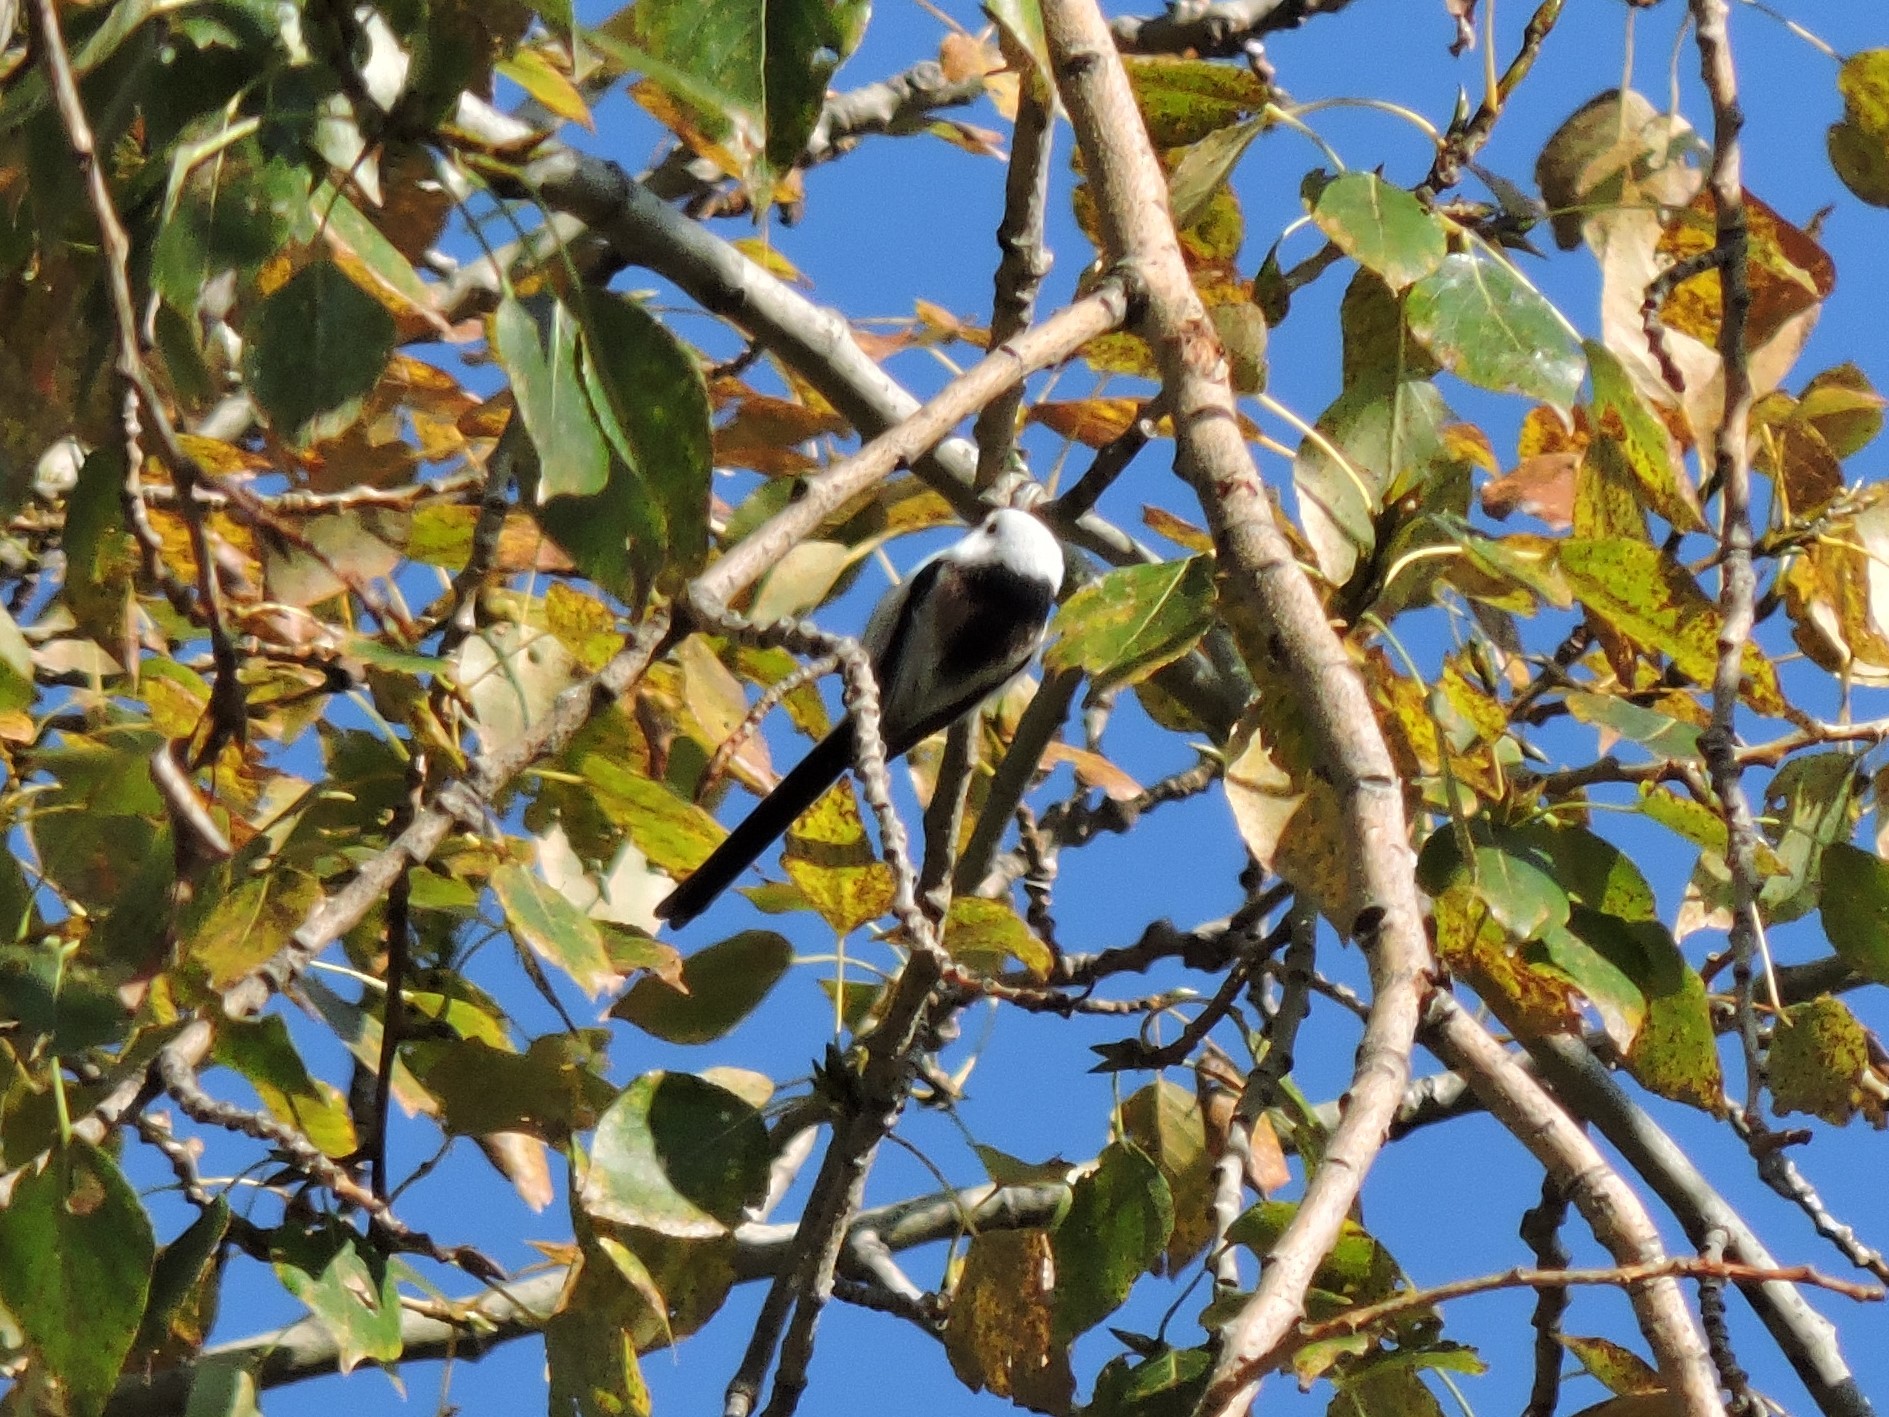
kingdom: Animalia
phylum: Chordata
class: Aves
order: Passeriformes
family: Aegithalidae
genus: Aegithalos
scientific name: Aegithalos caudatus
